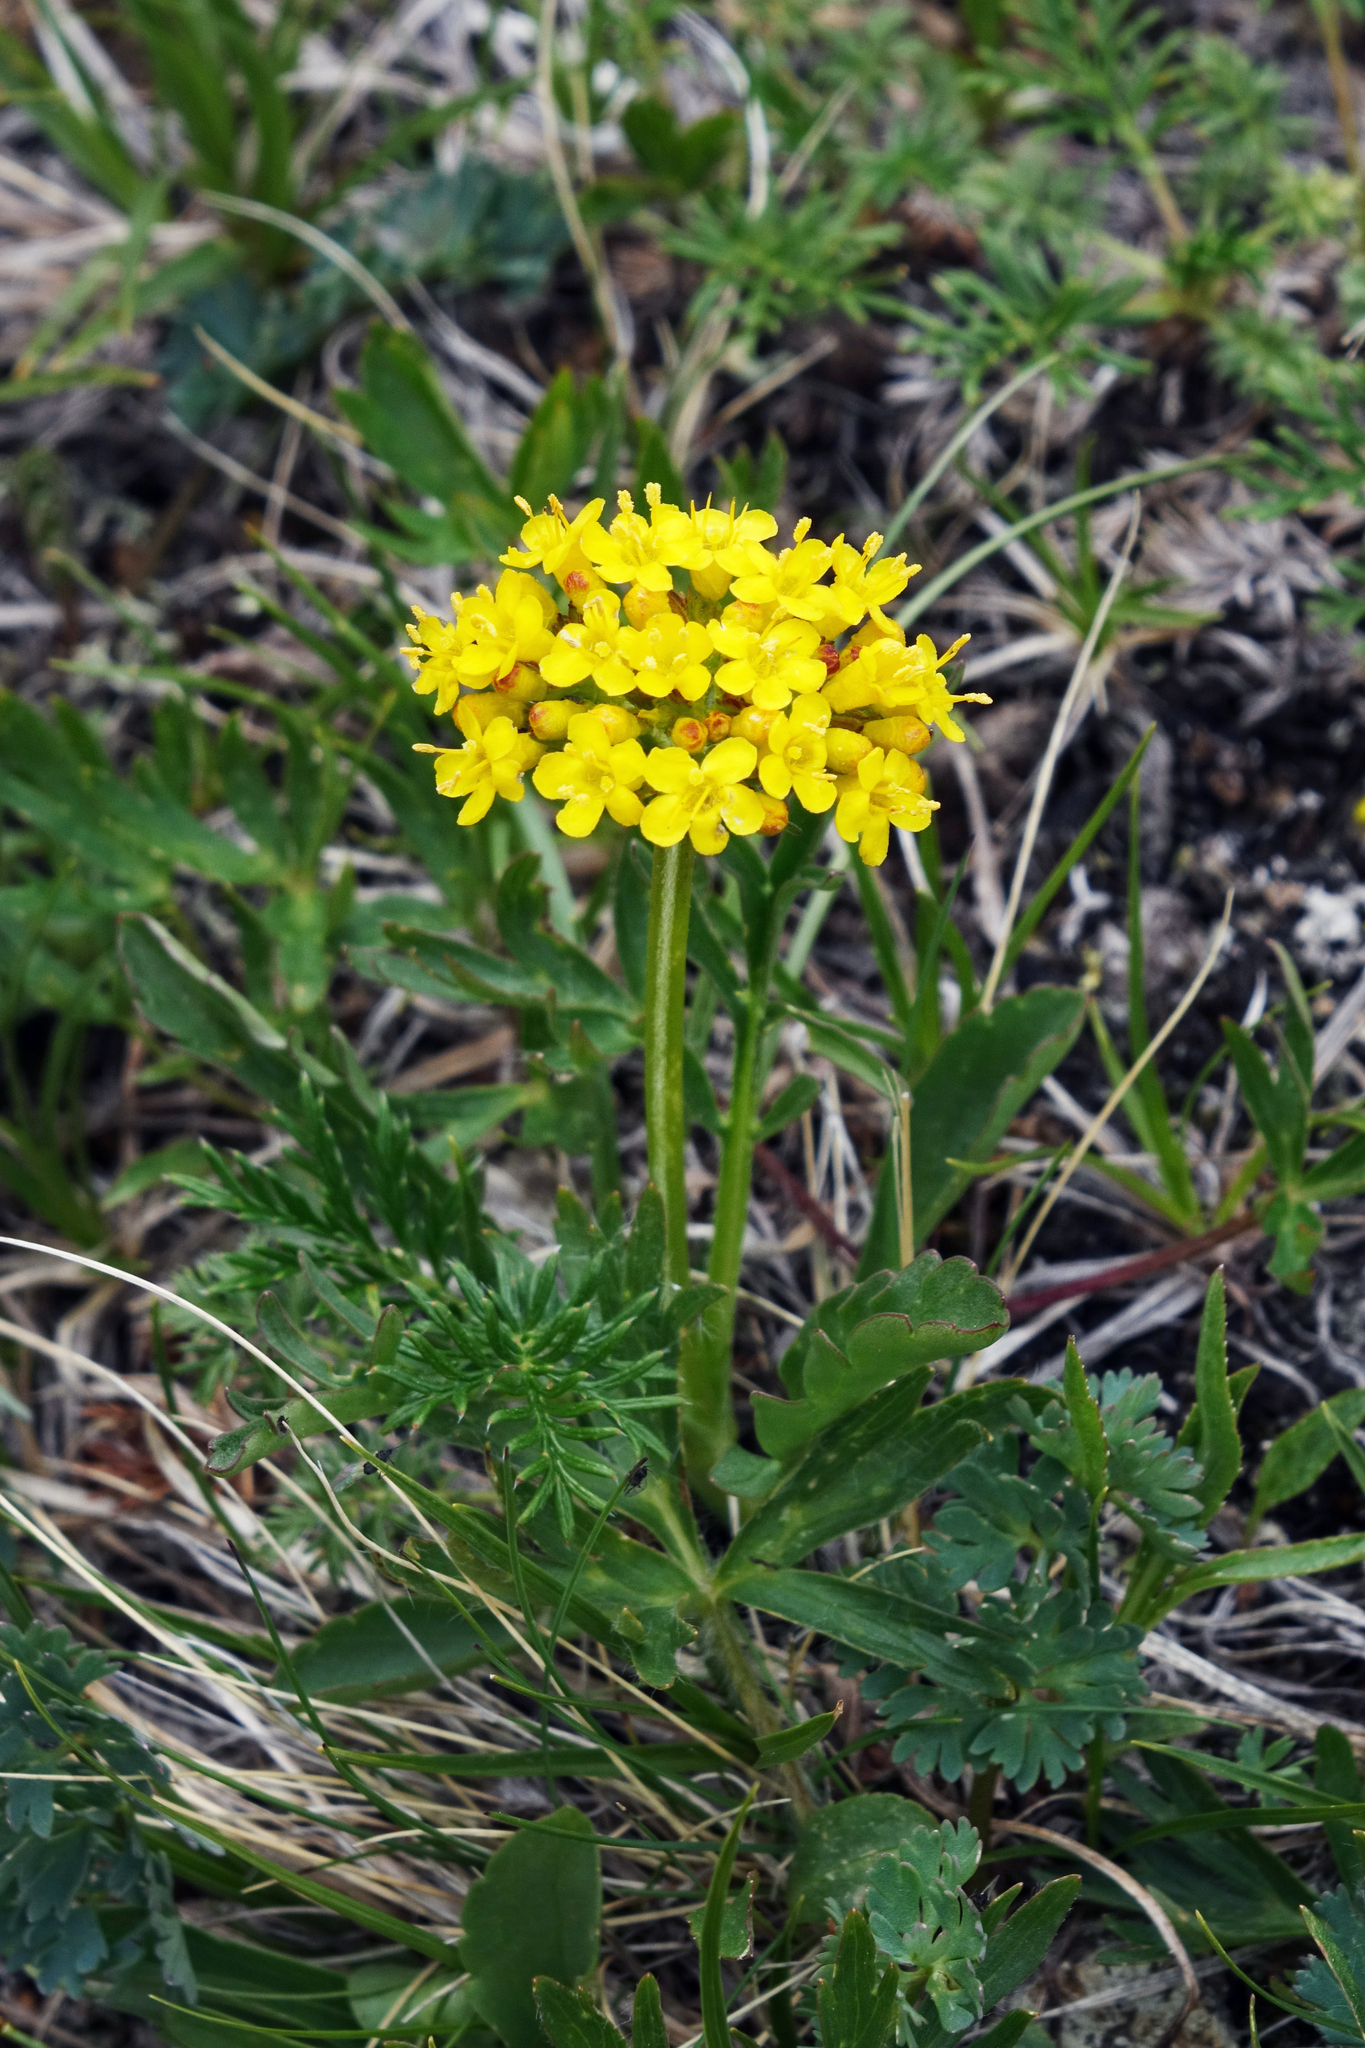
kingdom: Plantae
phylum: Tracheophyta
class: Magnoliopsida
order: Dipsacales
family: Caprifoliaceae
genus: Patrinia
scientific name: Patrinia sibirica
